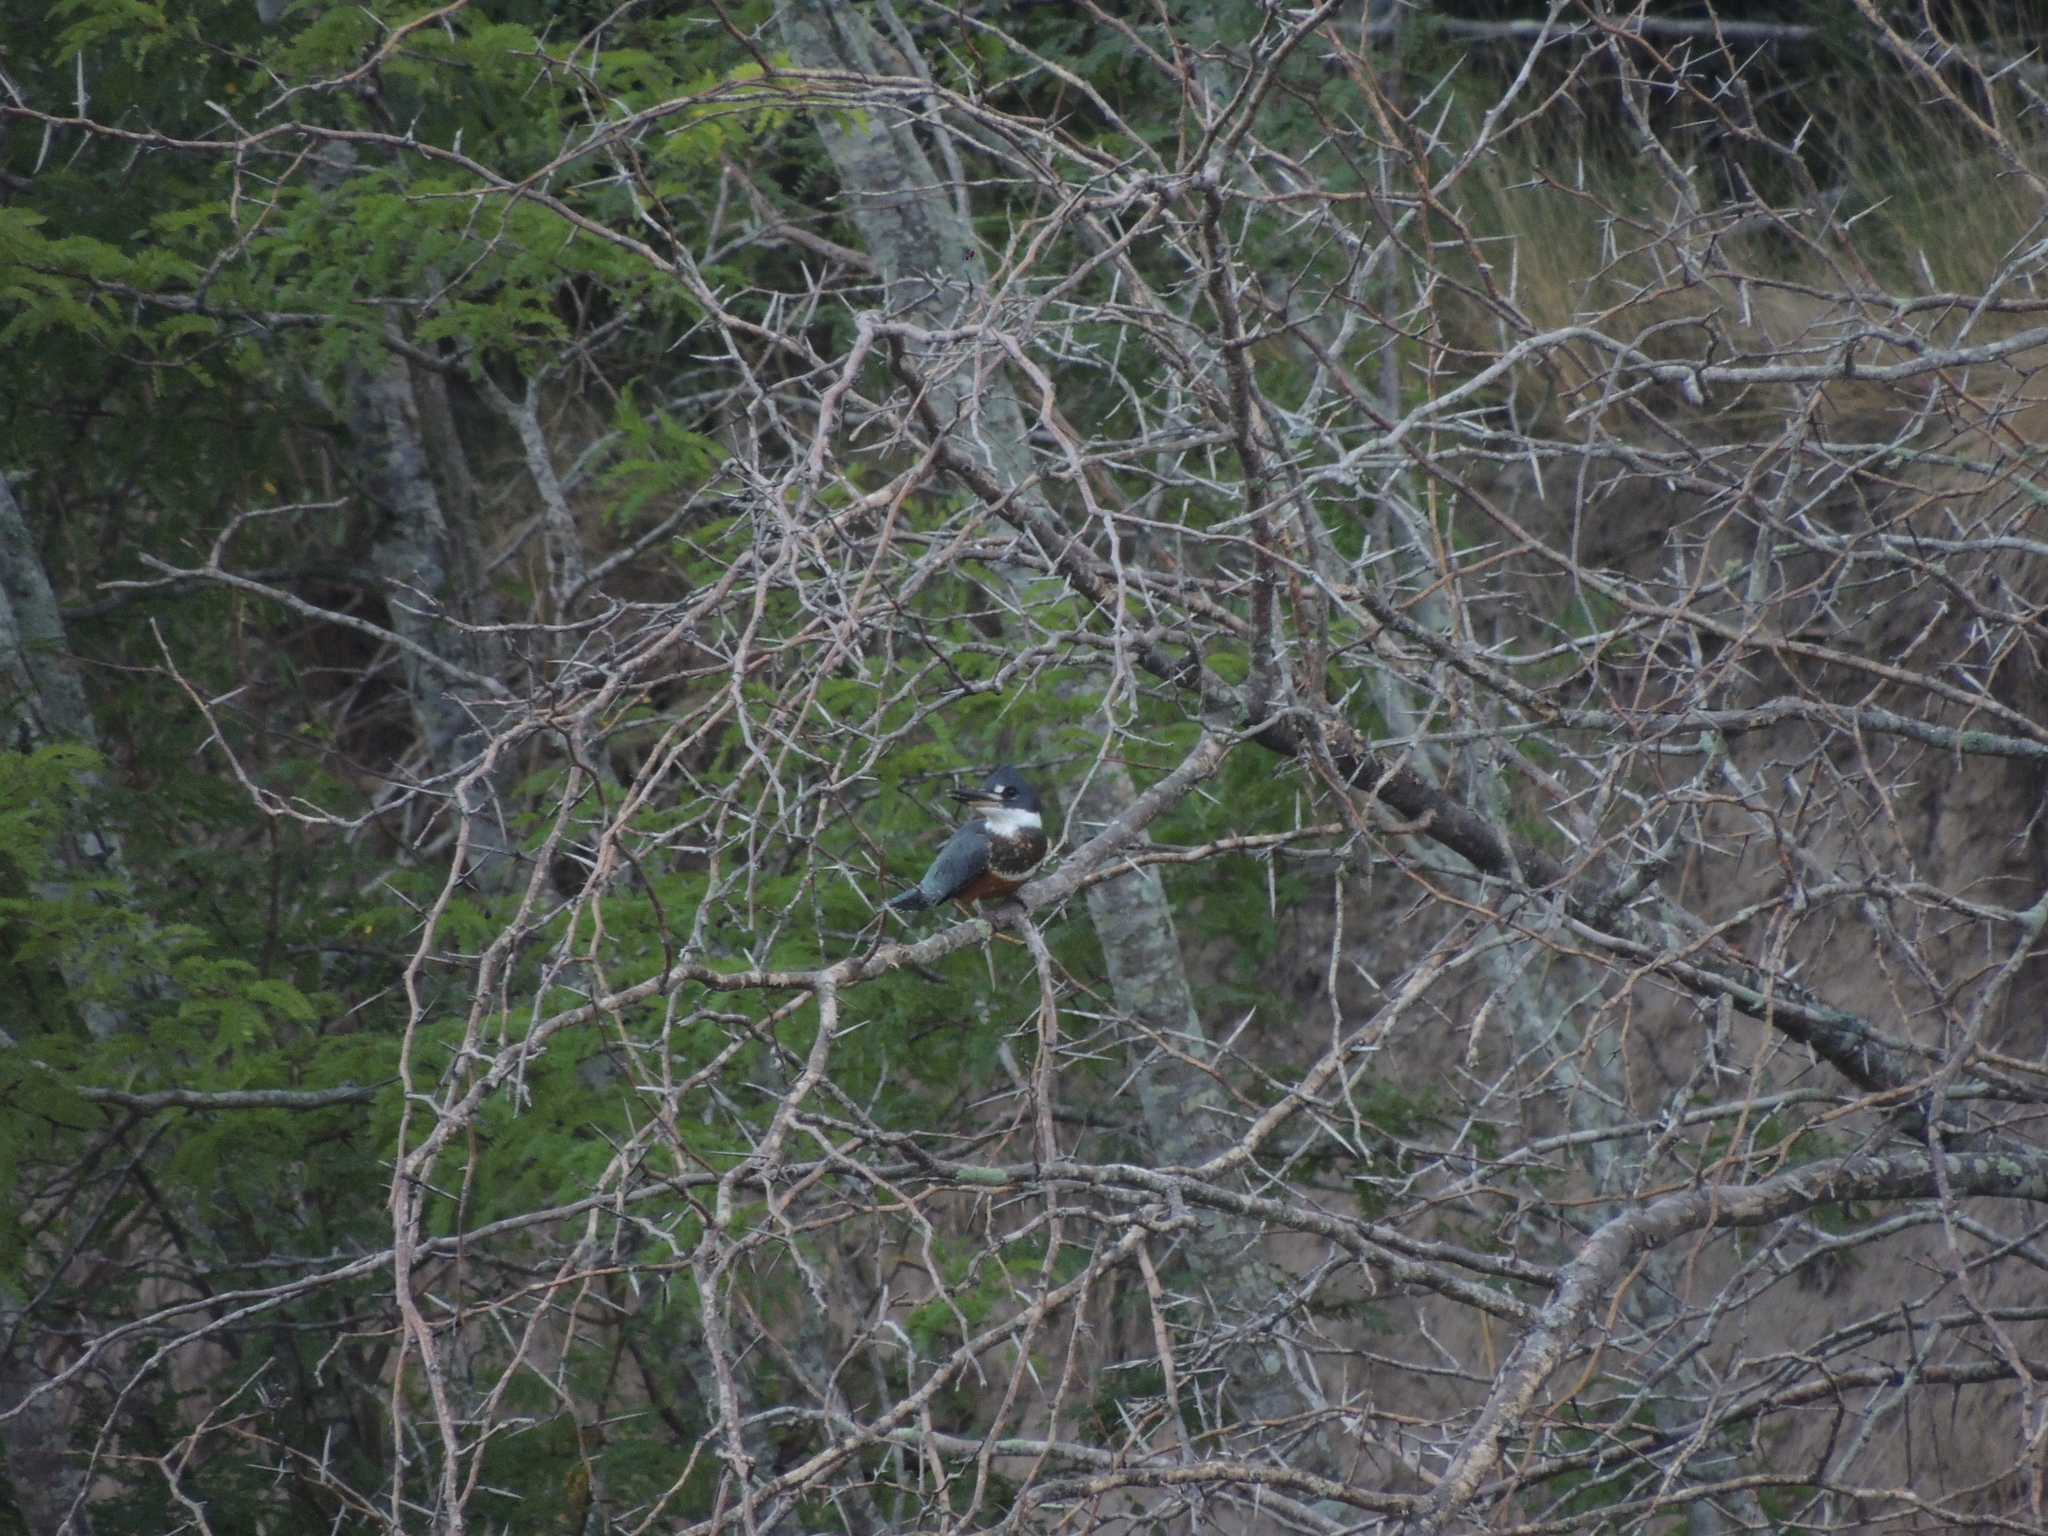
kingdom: Animalia
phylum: Chordata
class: Aves
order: Coraciiformes
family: Alcedinidae
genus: Megaceryle
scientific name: Megaceryle torquata
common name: Ringed kingfisher
